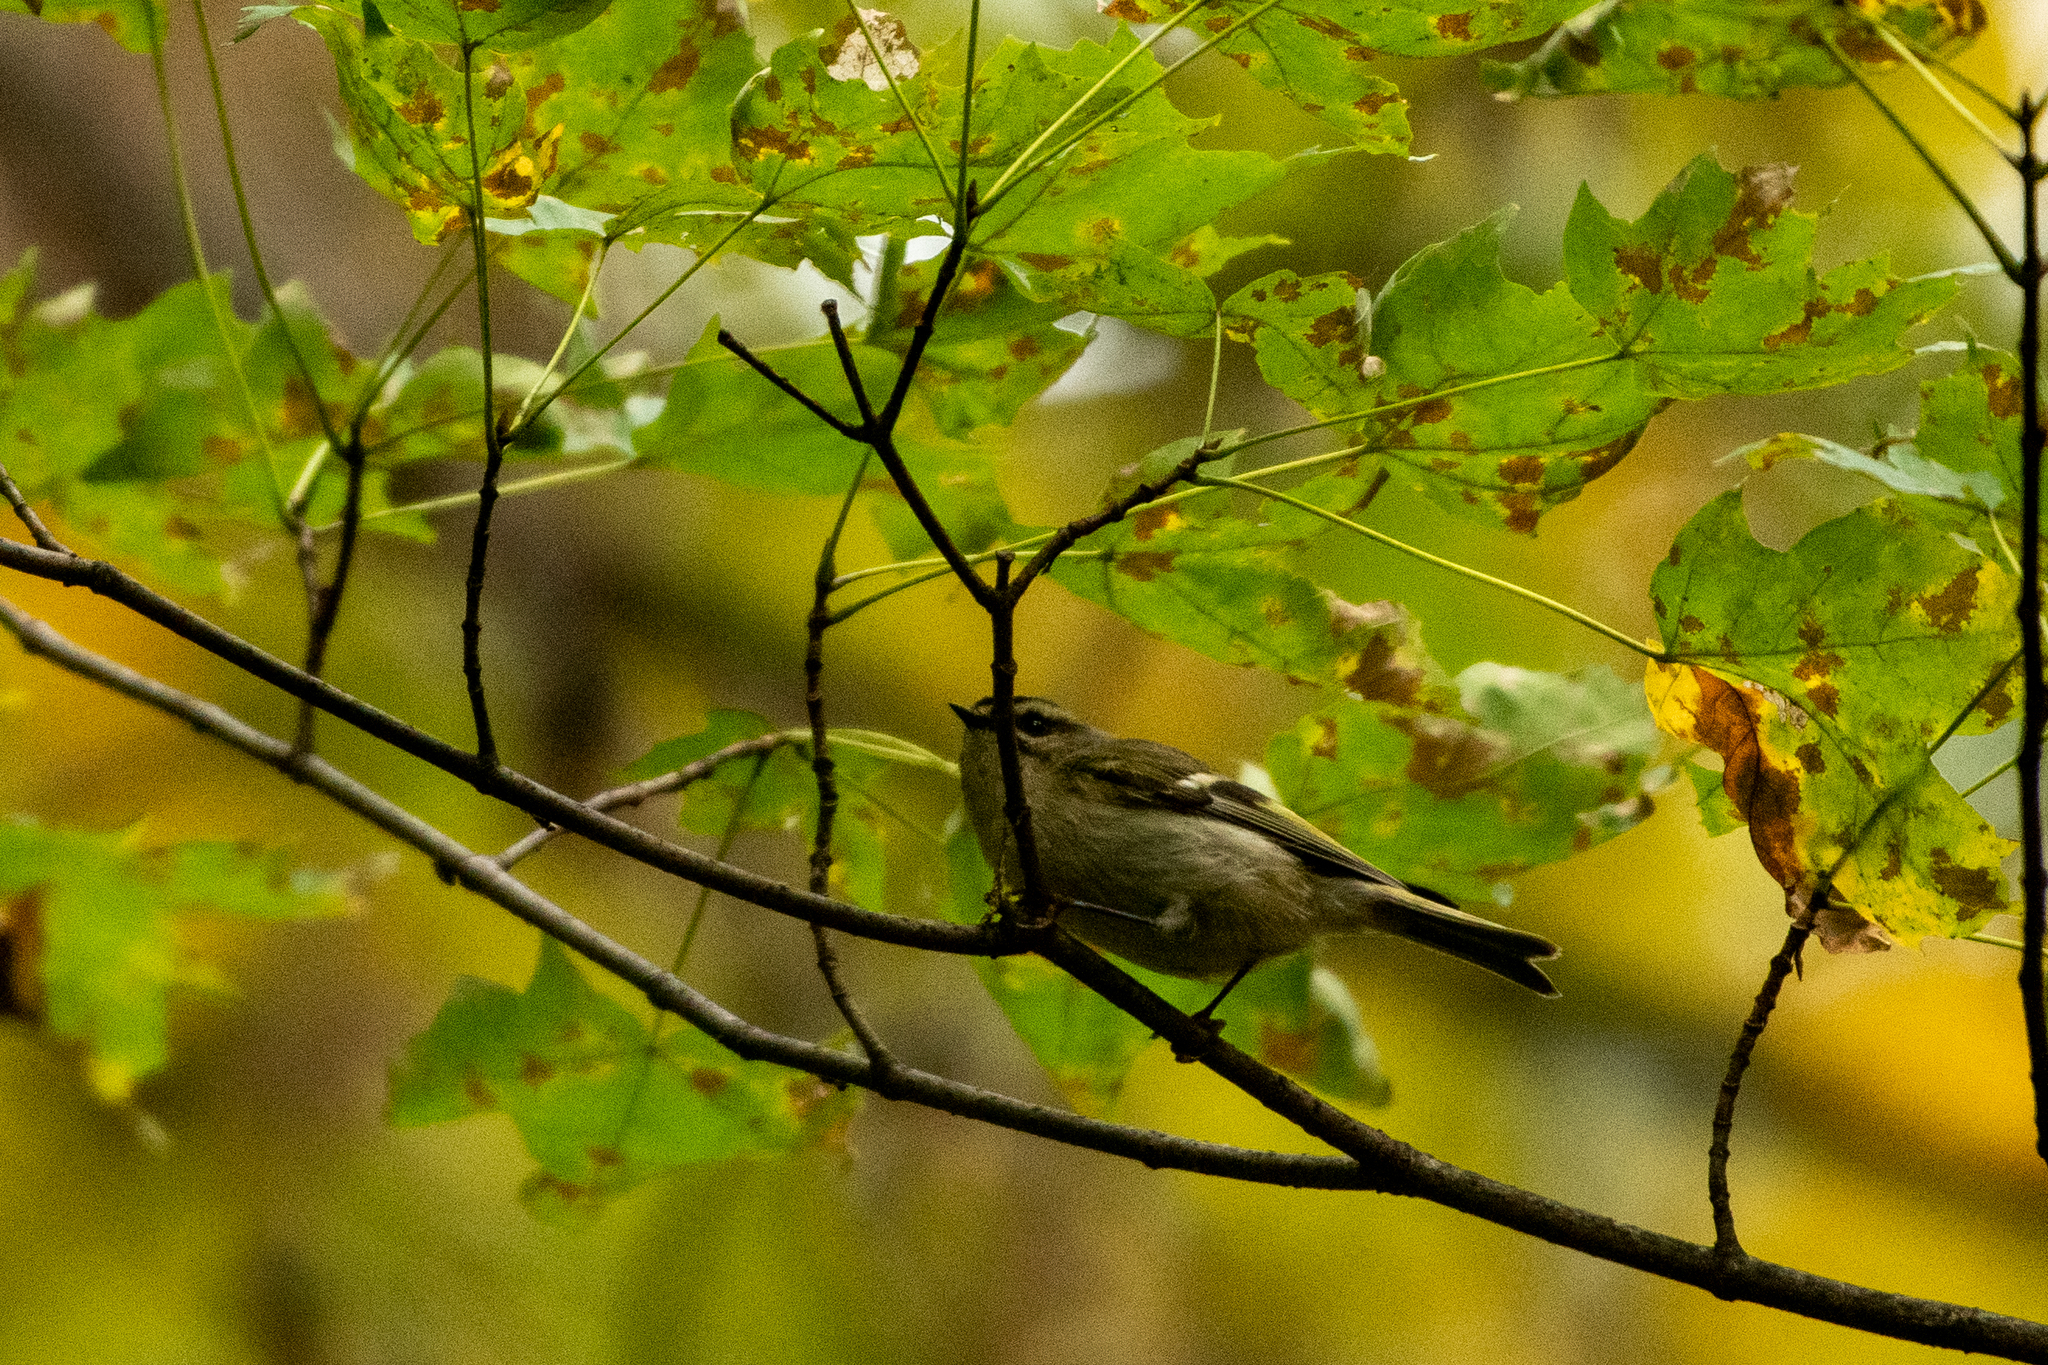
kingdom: Animalia
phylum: Chordata
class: Aves
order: Passeriformes
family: Regulidae
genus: Regulus
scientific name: Regulus satrapa
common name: Golden-crowned kinglet
